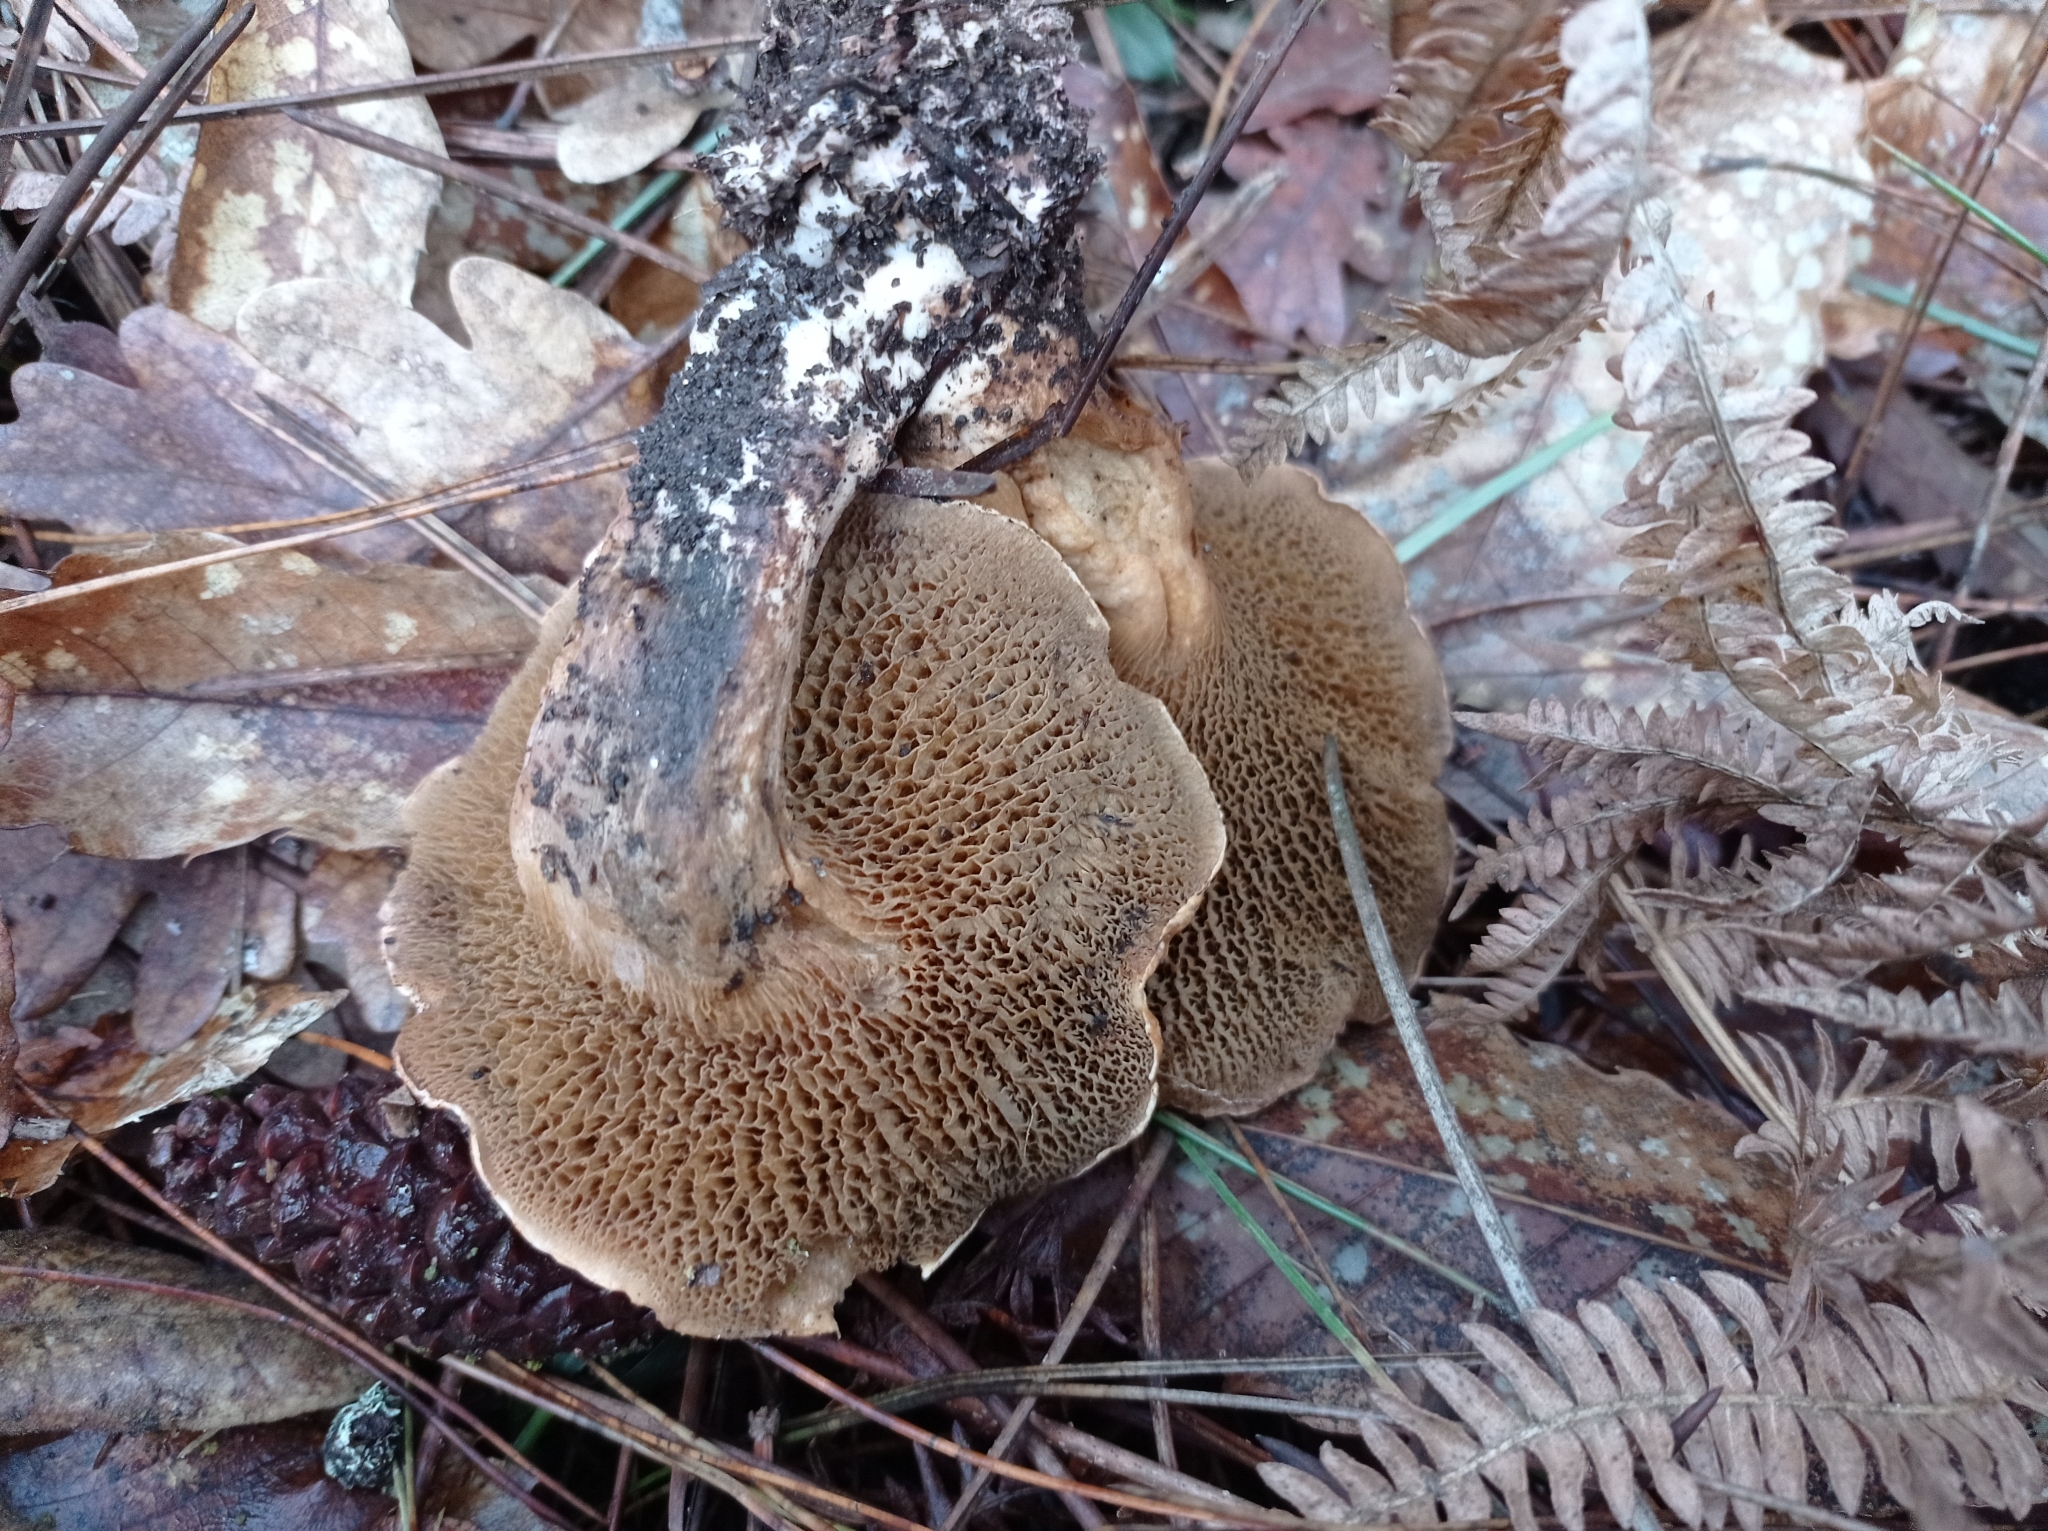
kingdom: Fungi
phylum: Basidiomycota
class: Agaricomycetes
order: Boletales
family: Suillaceae
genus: Suillus
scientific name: Suillus bovinus
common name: Bovine bolete
